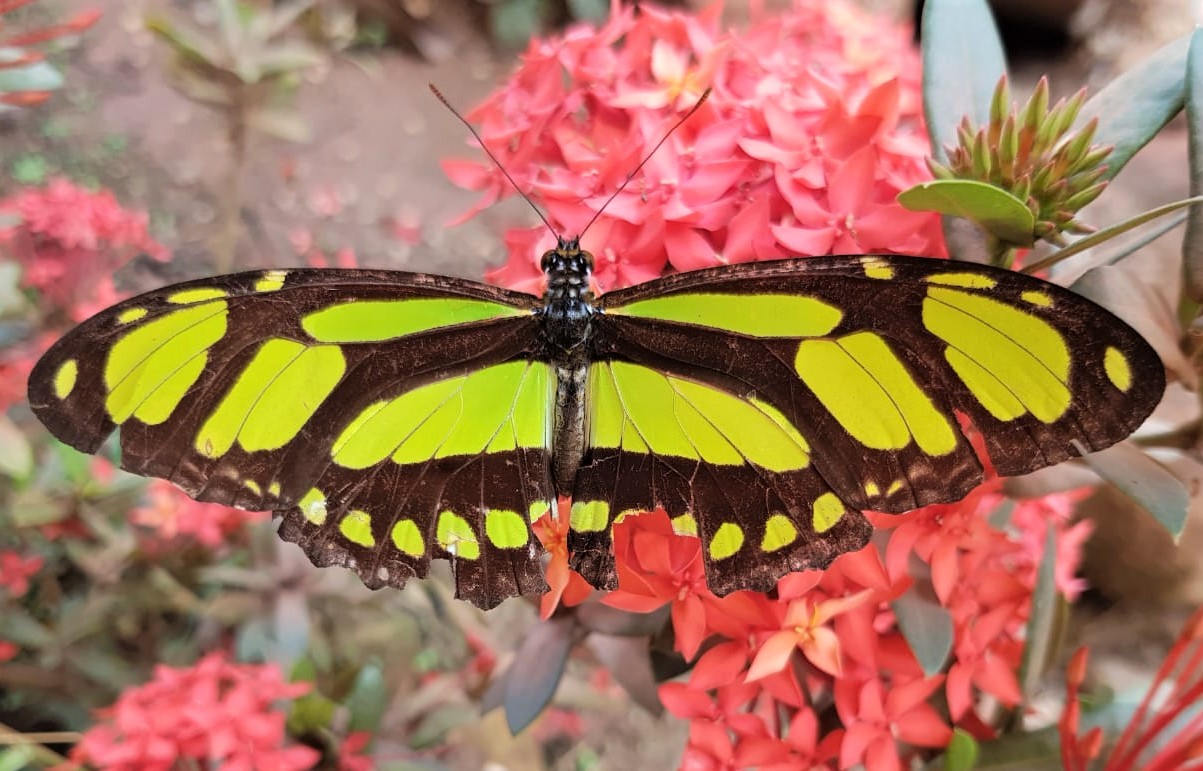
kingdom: Animalia
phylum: Arthropoda
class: Insecta
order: Lepidoptera
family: Nymphalidae
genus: Philaethria
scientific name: Philaethria dido
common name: Scarce bamboo page
